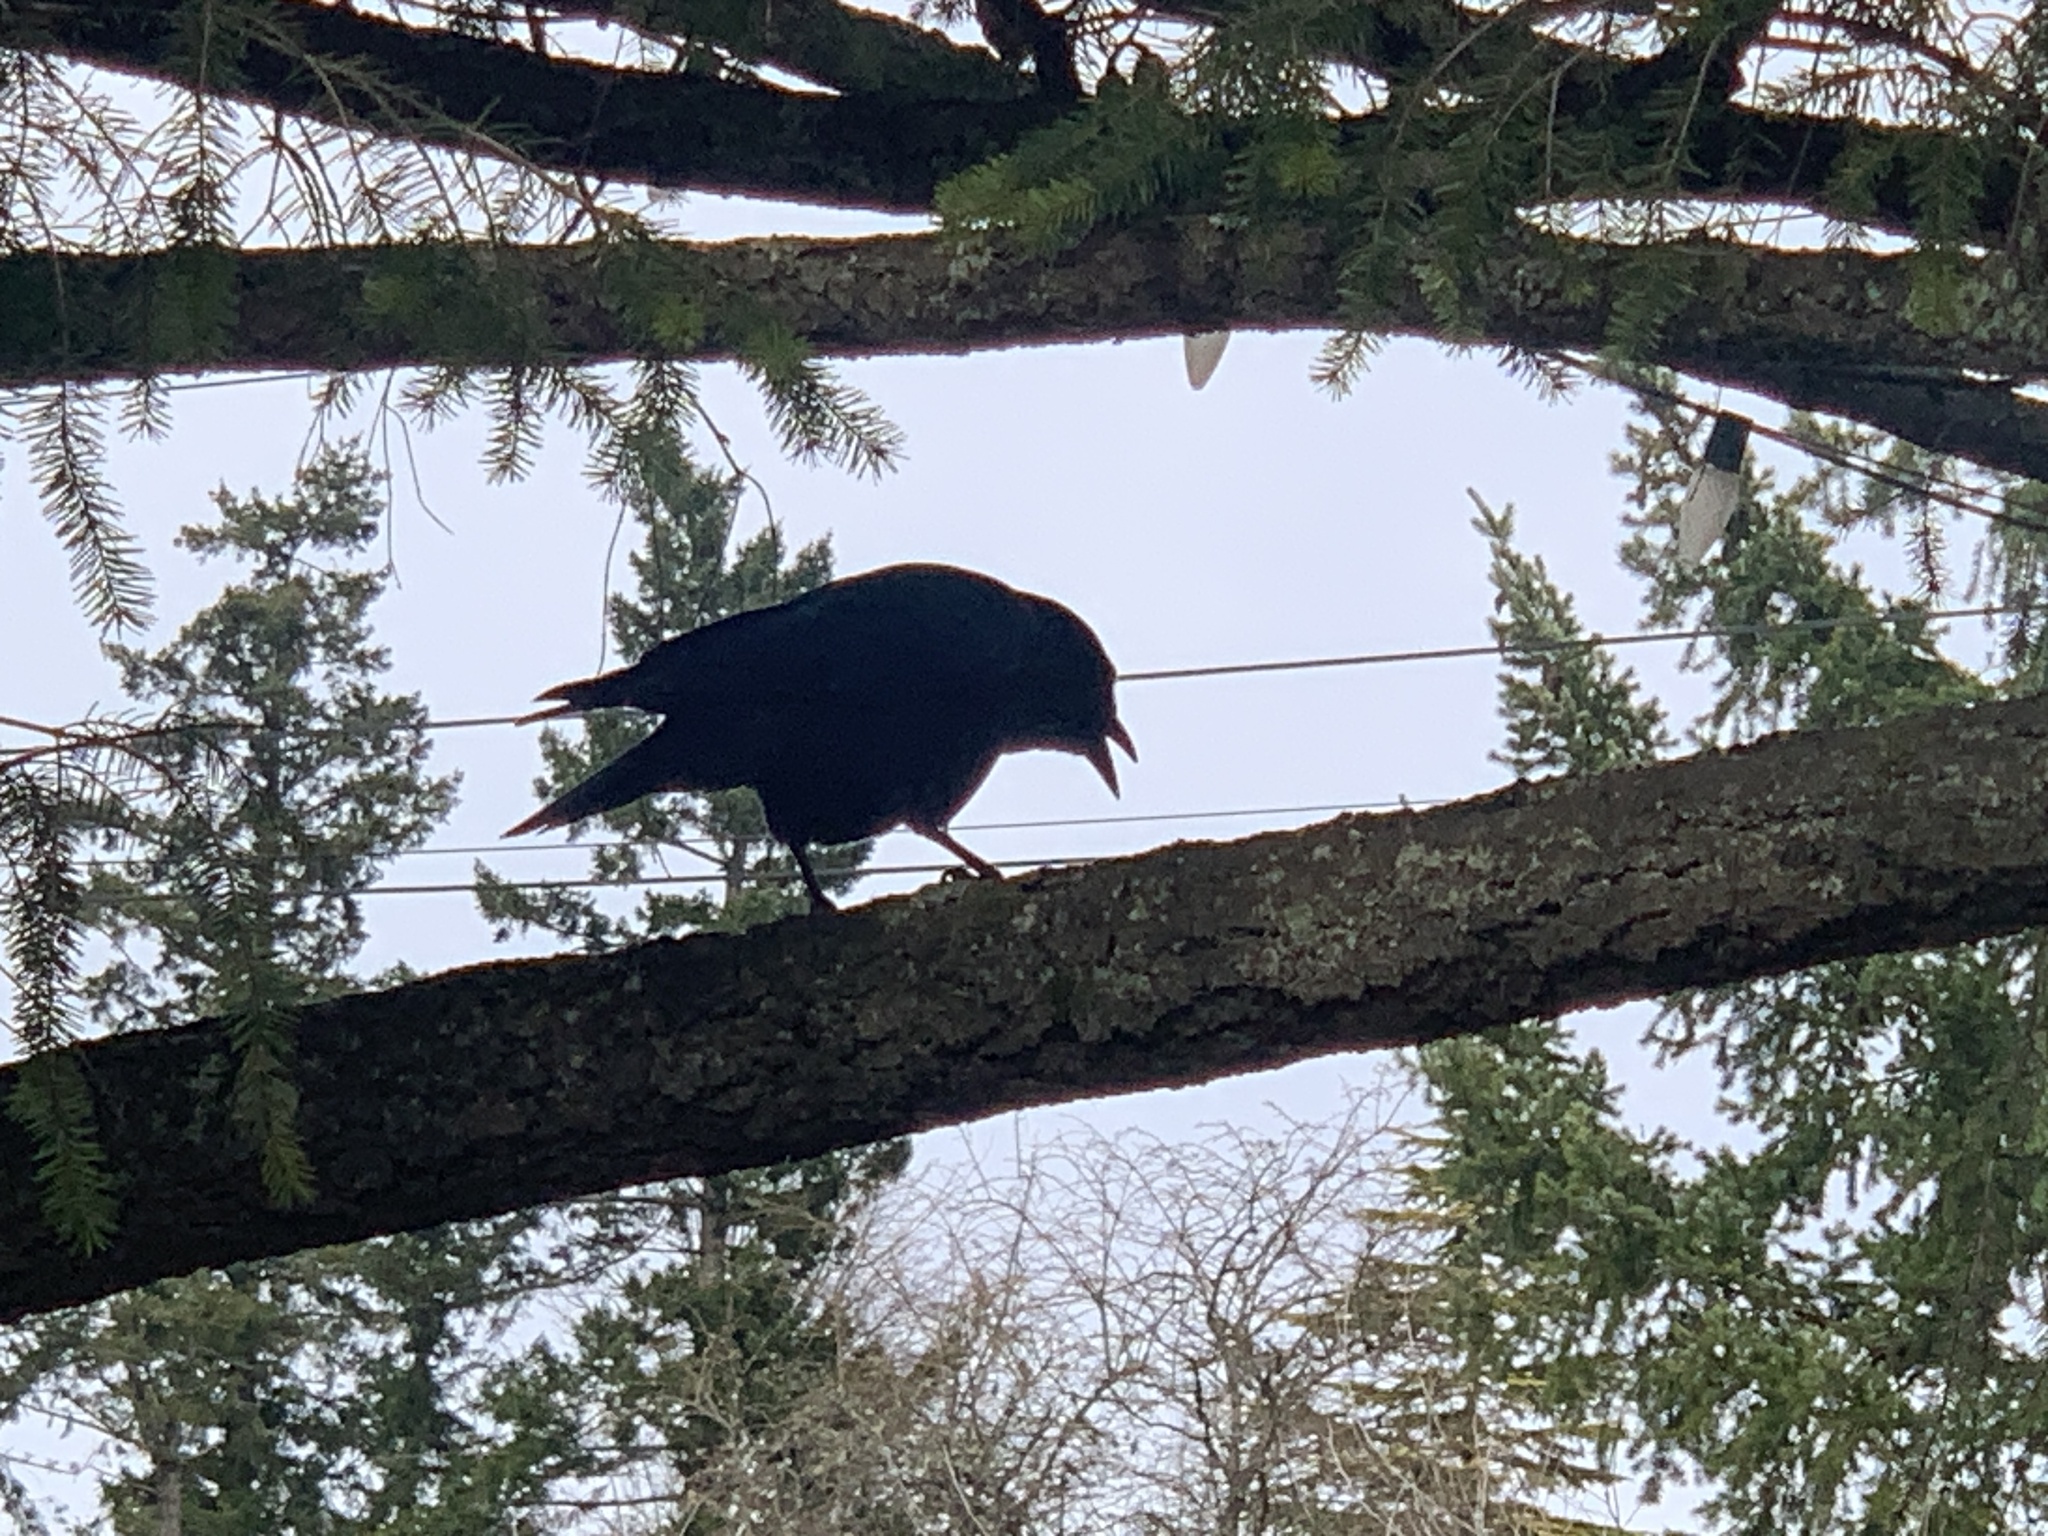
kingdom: Animalia
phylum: Chordata
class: Aves
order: Passeriformes
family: Corvidae
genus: Corvus
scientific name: Corvus brachyrhynchos
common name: American crow
